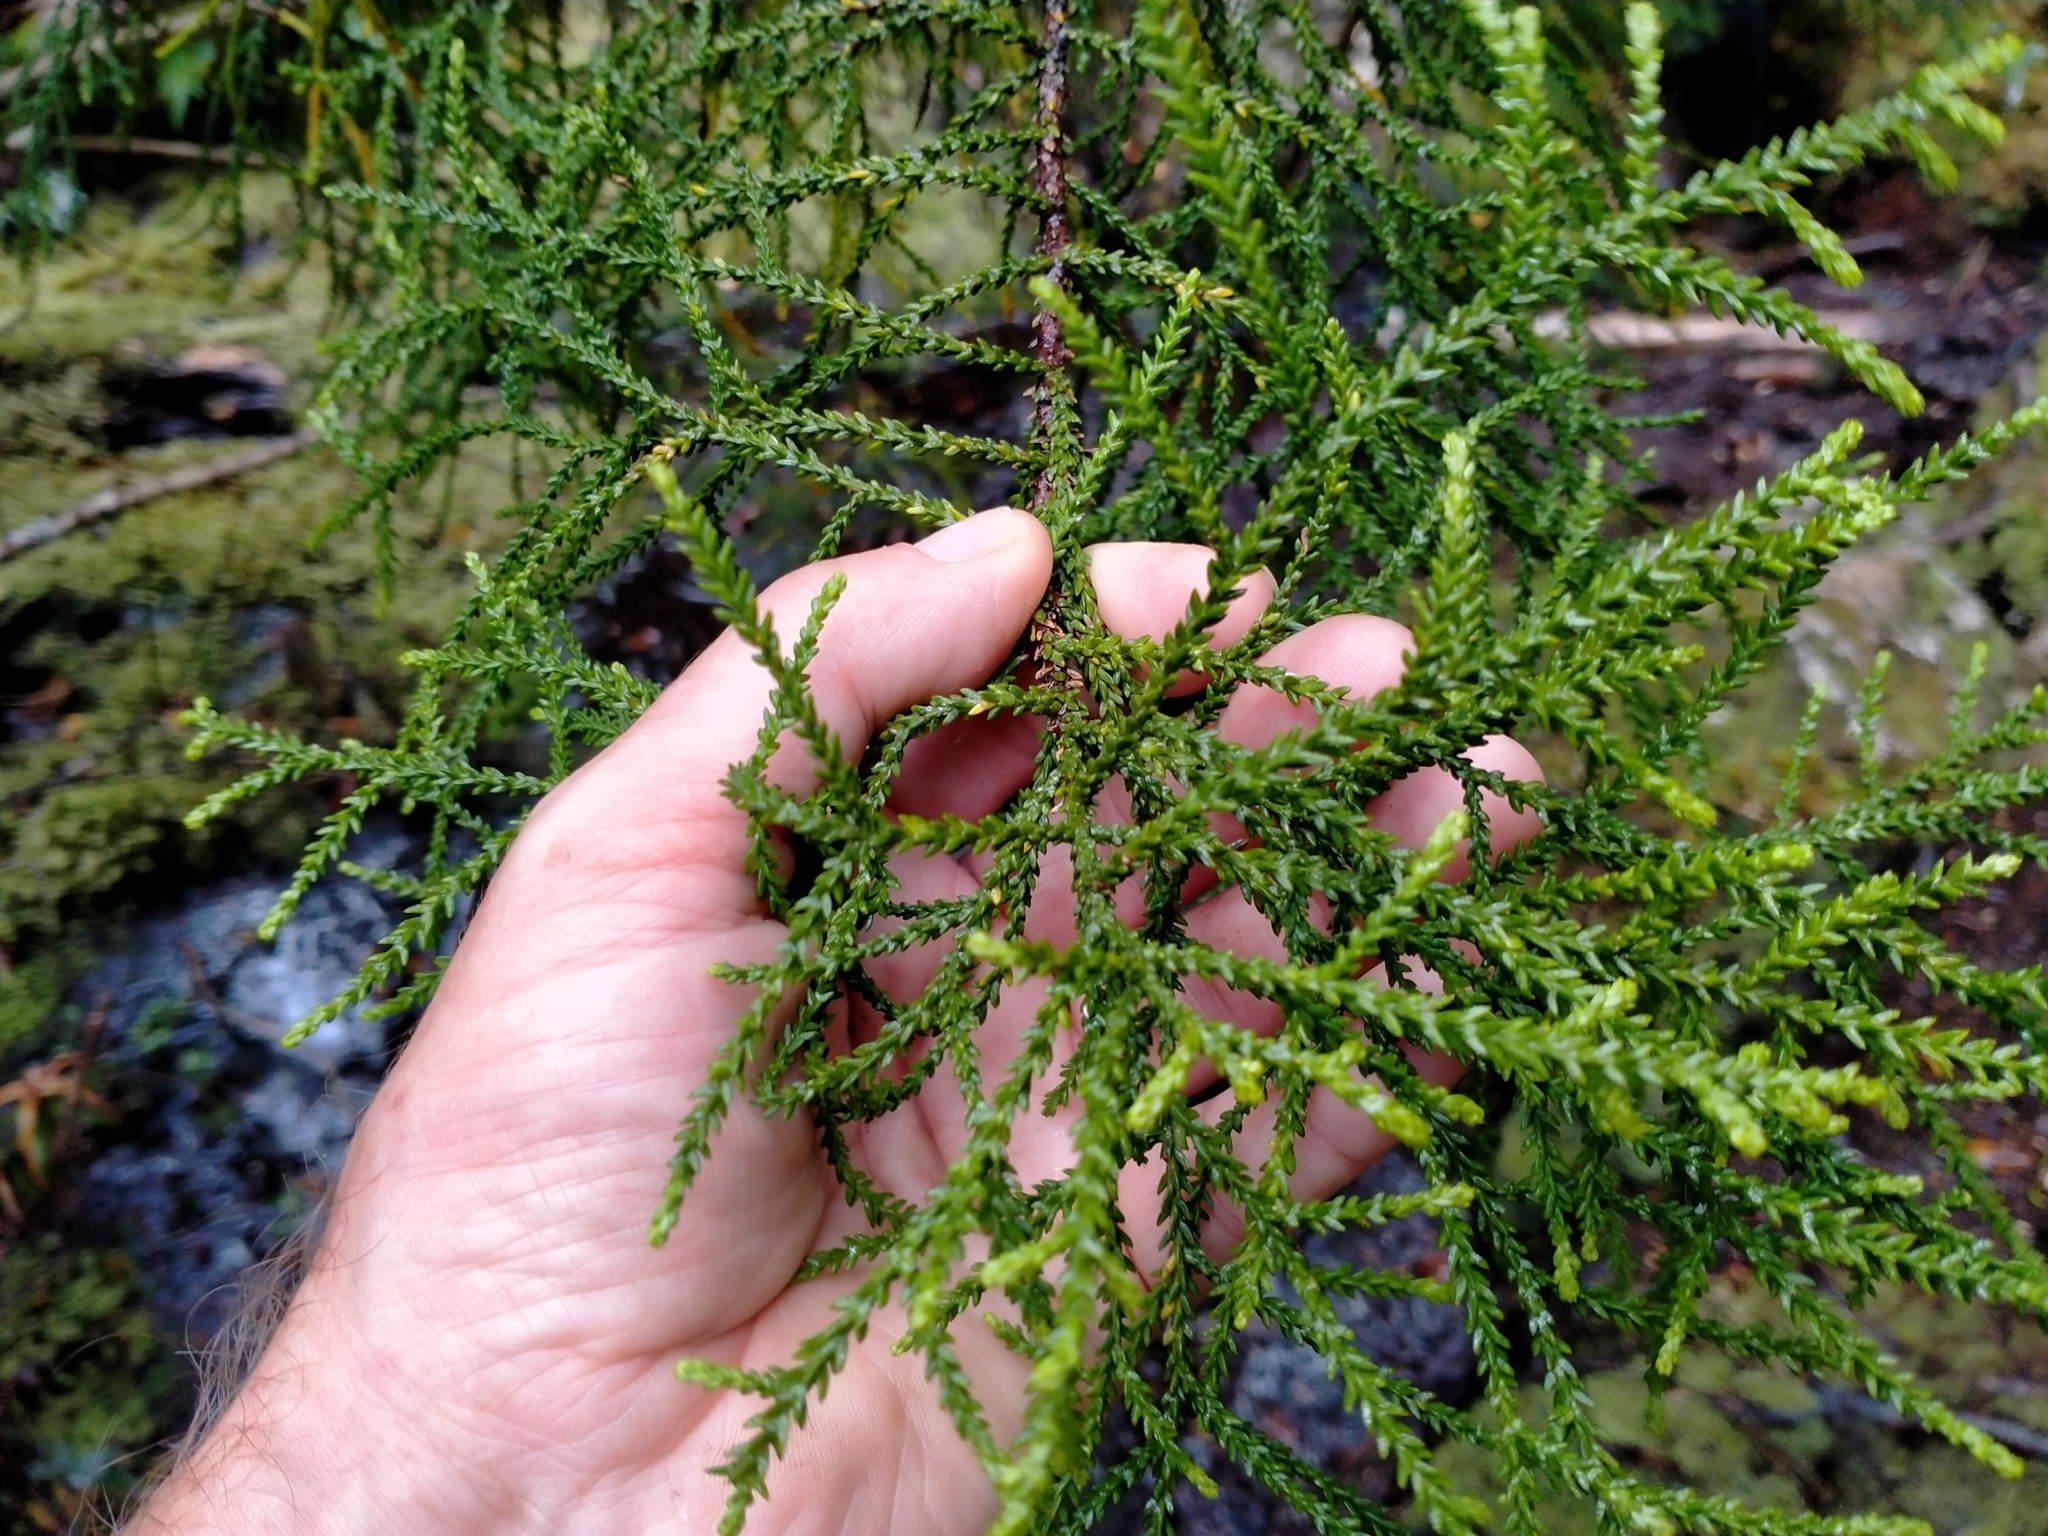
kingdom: Plantae
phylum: Tracheophyta
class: Pinopsida
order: Pinales
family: Podocarpaceae
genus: Lepidothamnus
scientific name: Lepidothamnus intermedius
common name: Yellow silver pine
